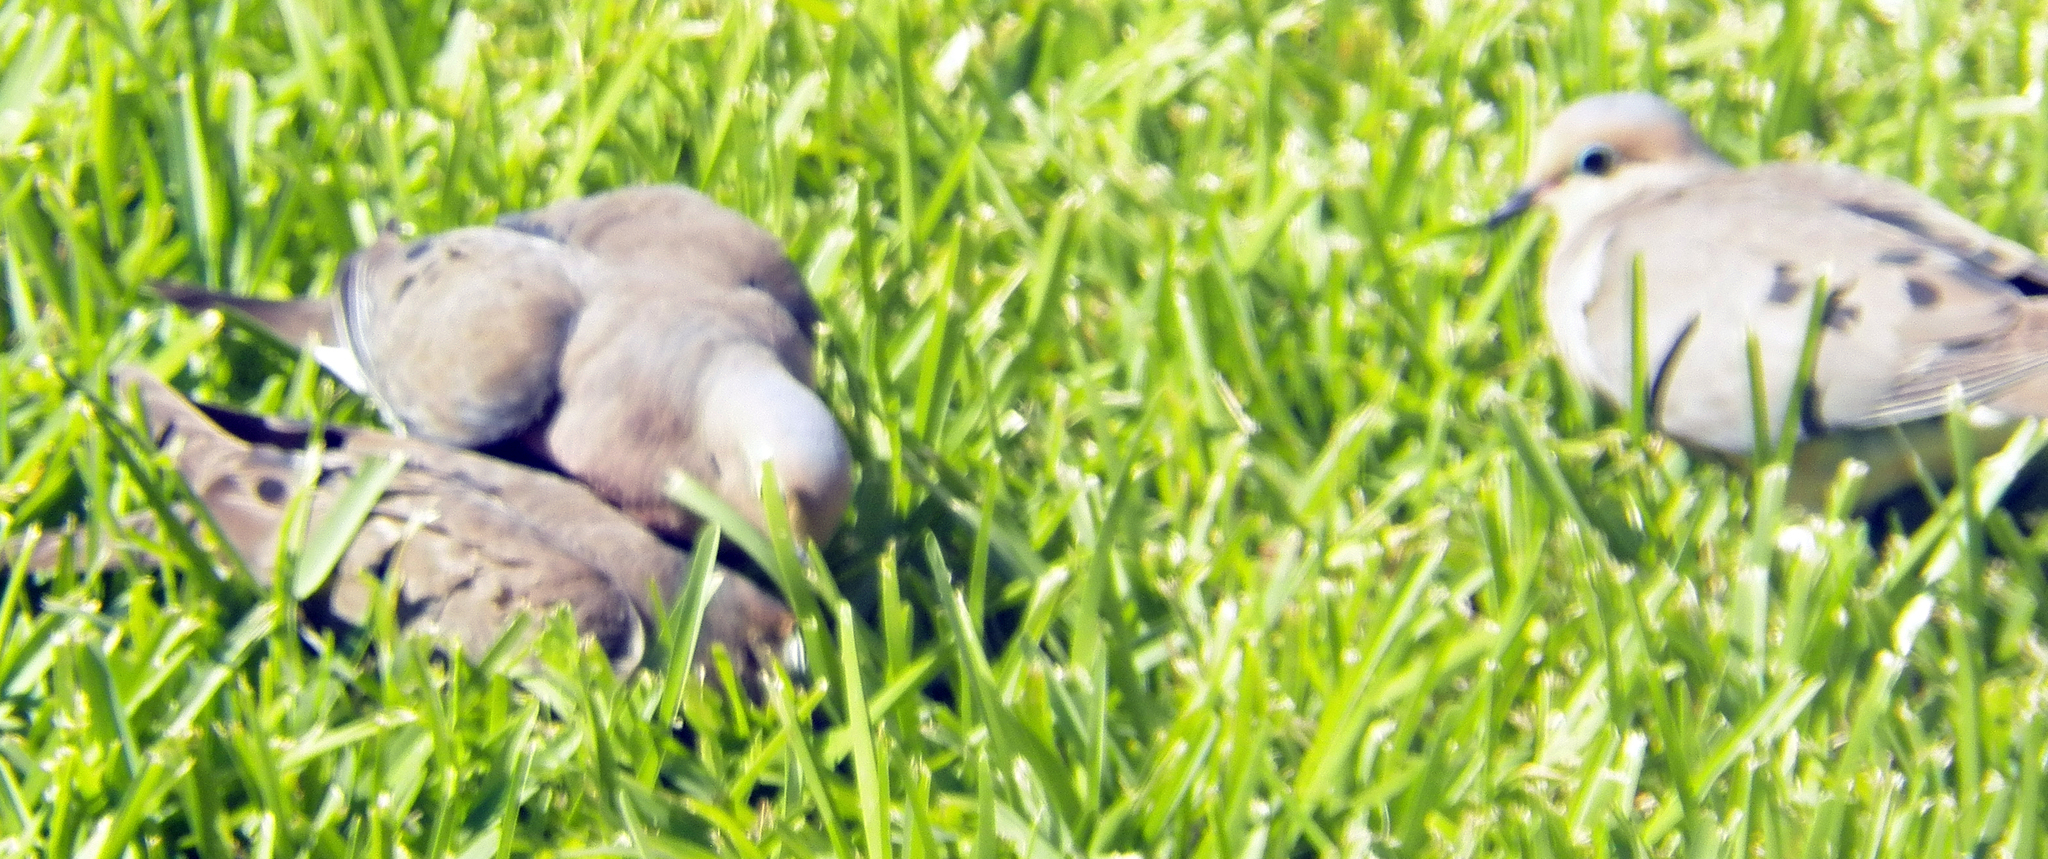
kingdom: Animalia
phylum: Chordata
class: Aves
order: Columbiformes
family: Columbidae
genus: Zenaida
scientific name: Zenaida macroura
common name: Mourning dove
